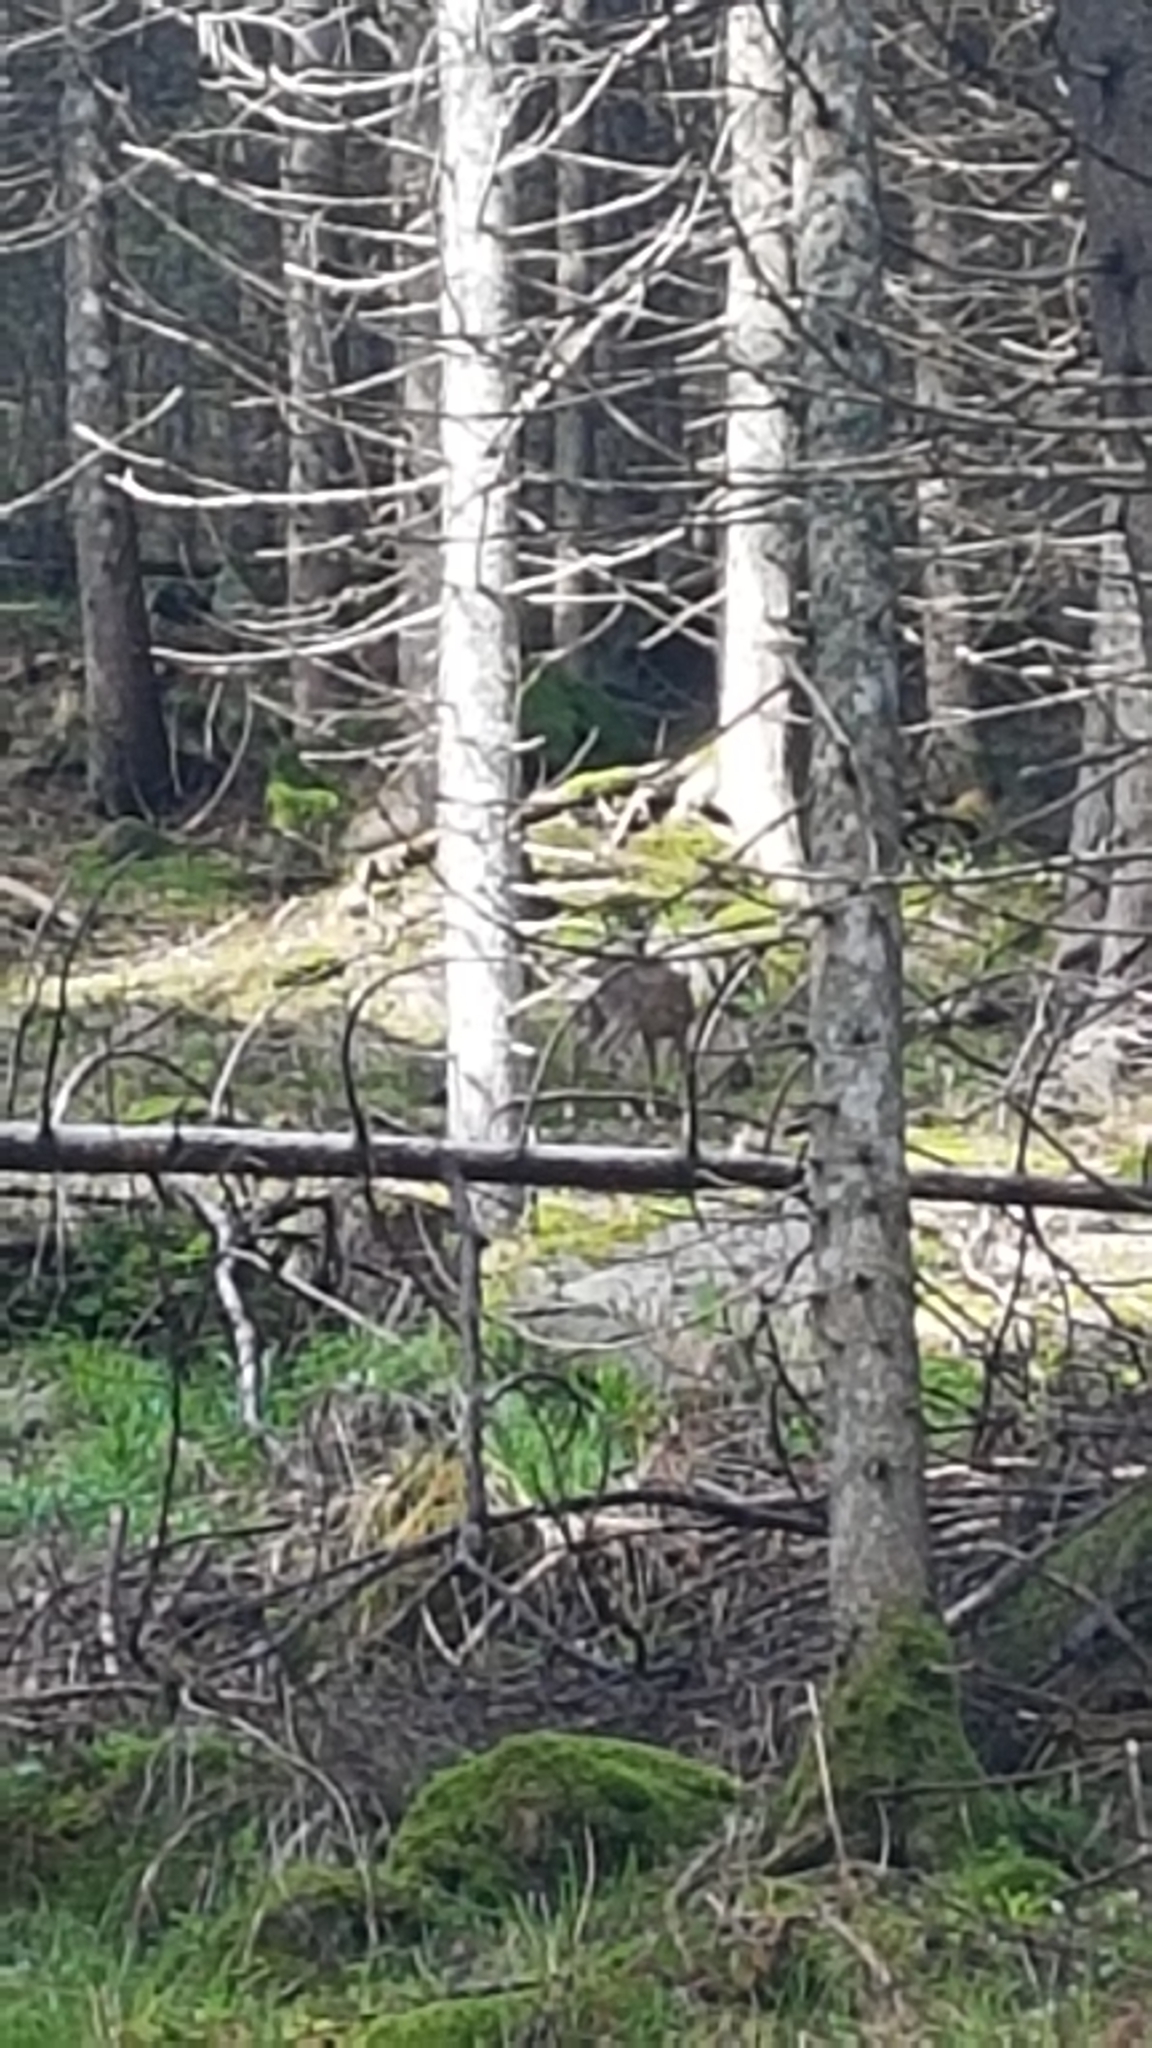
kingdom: Animalia
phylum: Chordata
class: Mammalia
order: Artiodactyla
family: Cervidae
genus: Capreolus
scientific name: Capreolus capreolus
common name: Western roe deer
